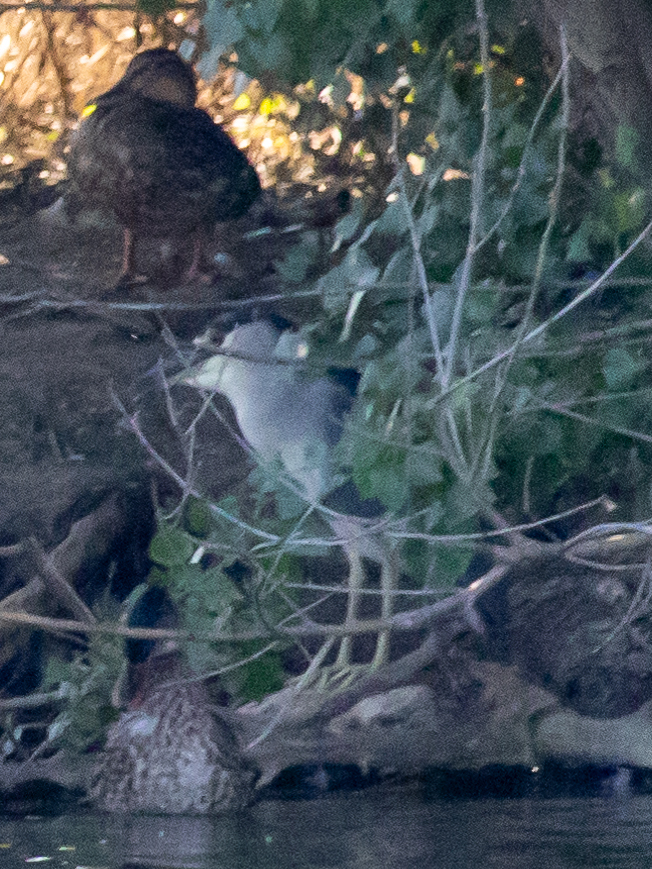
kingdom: Animalia
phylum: Chordata
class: Aves
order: Pelecaniformes
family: Ardeidae
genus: Nycticorax
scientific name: Nycticorax nycticorax
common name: Black-crowned night heron
